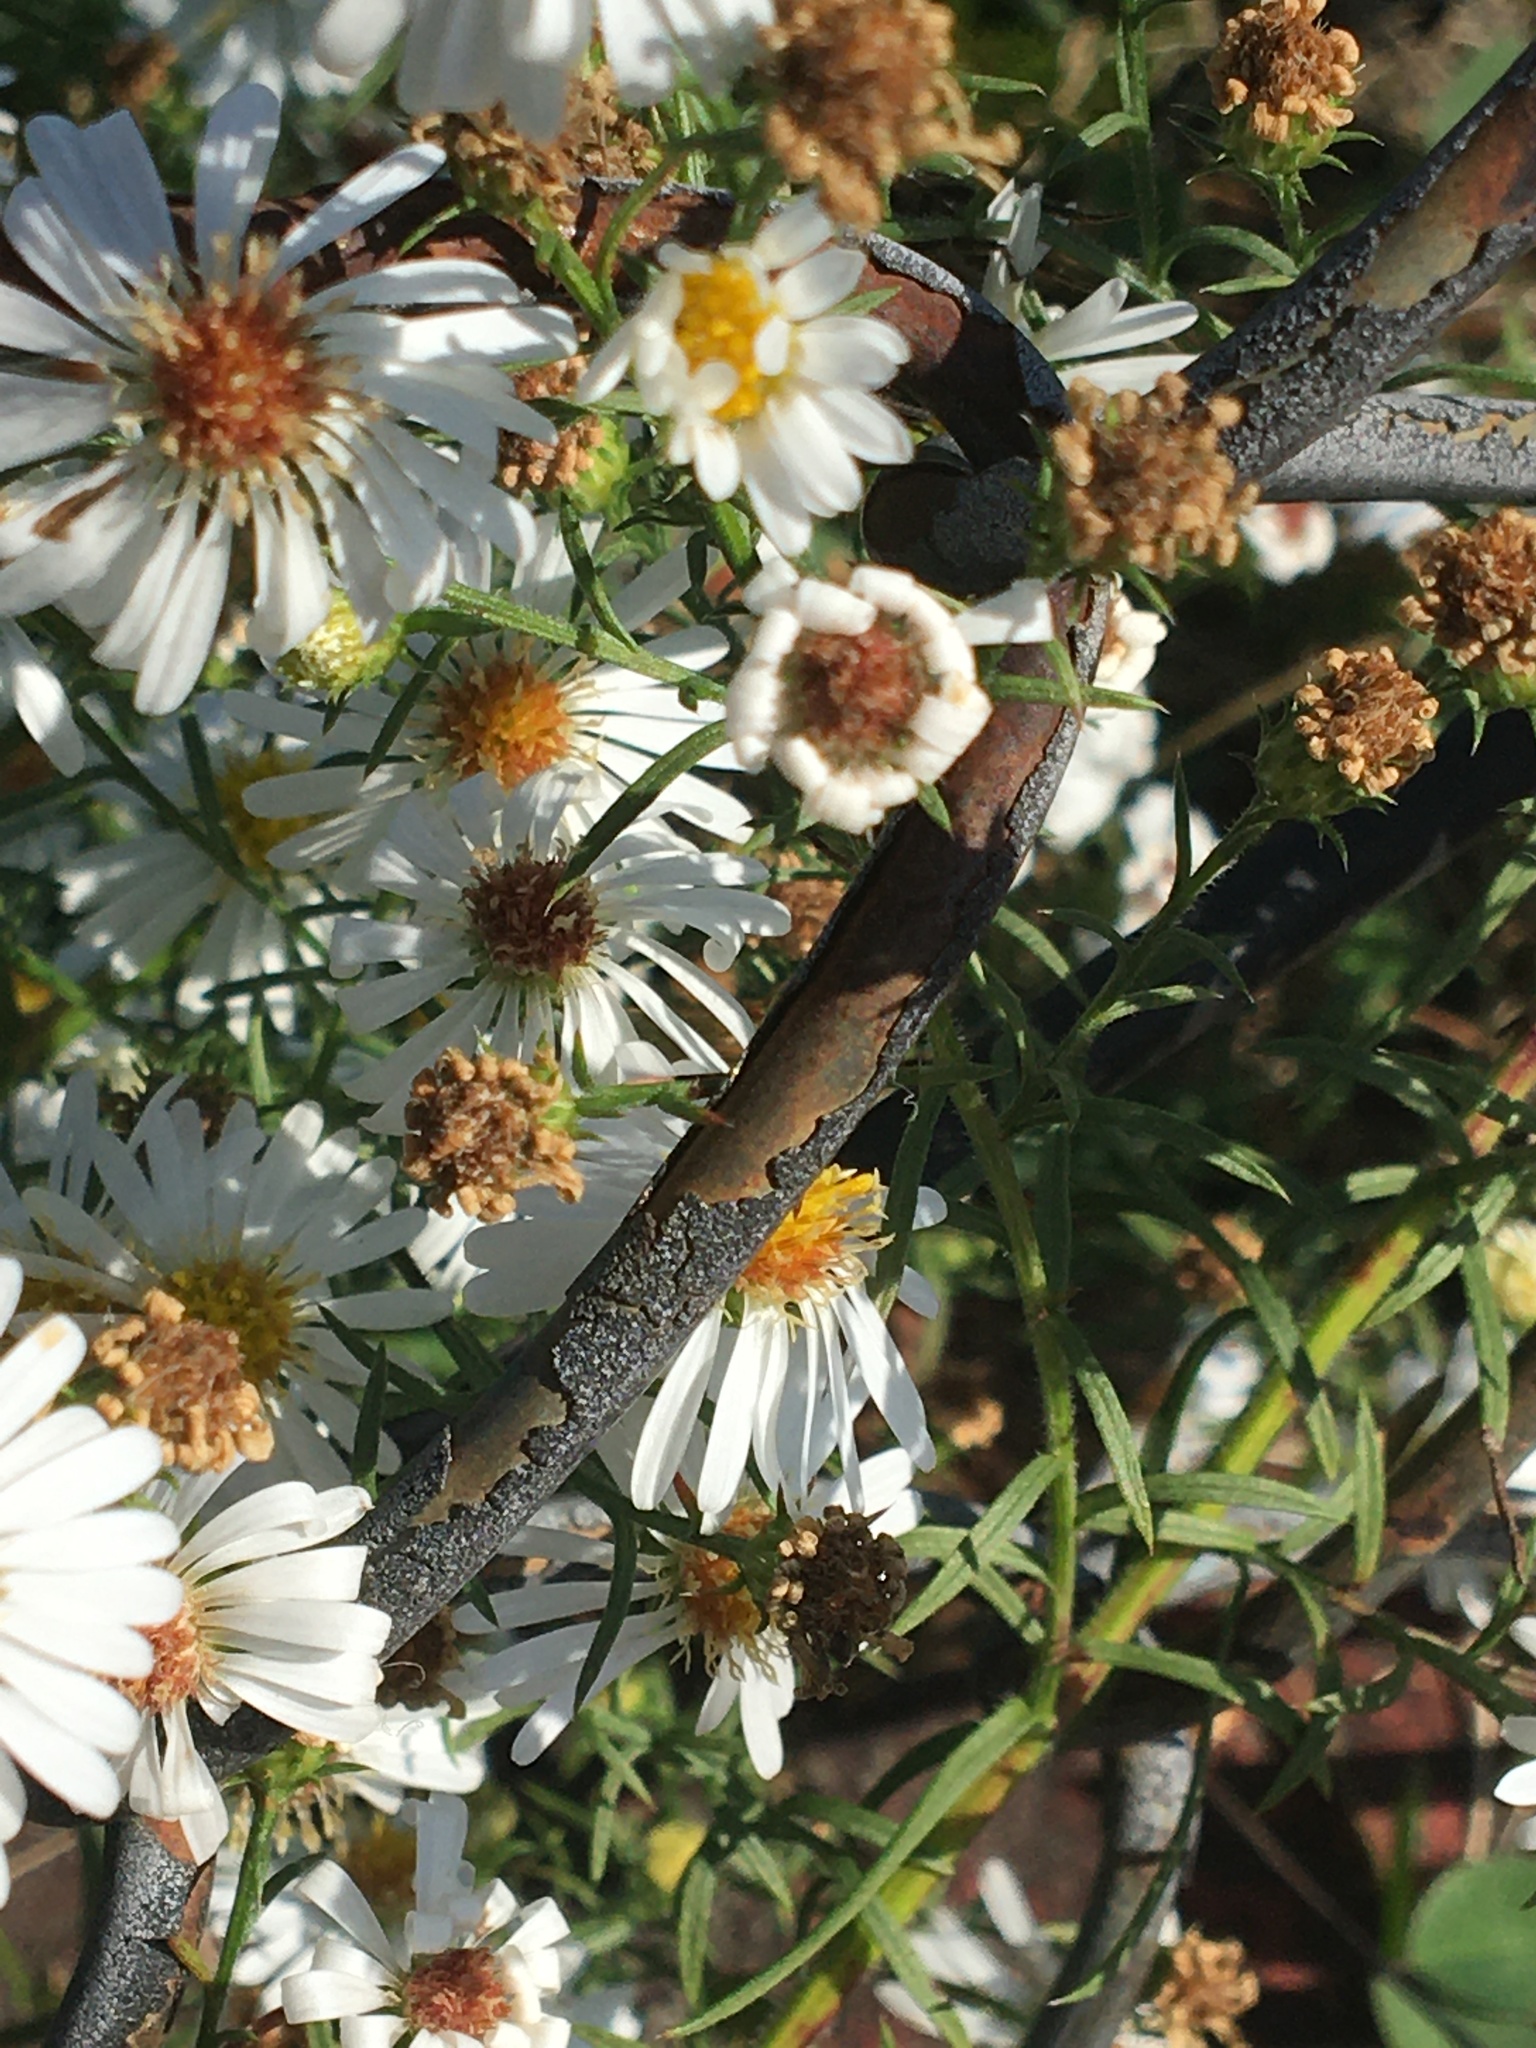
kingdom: Animalia
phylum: Arthropoda
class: Insecta
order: Hymenoptera
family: Apidae
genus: Bombus
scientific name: Bombus impatiens
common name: Common eastern bumble bee
